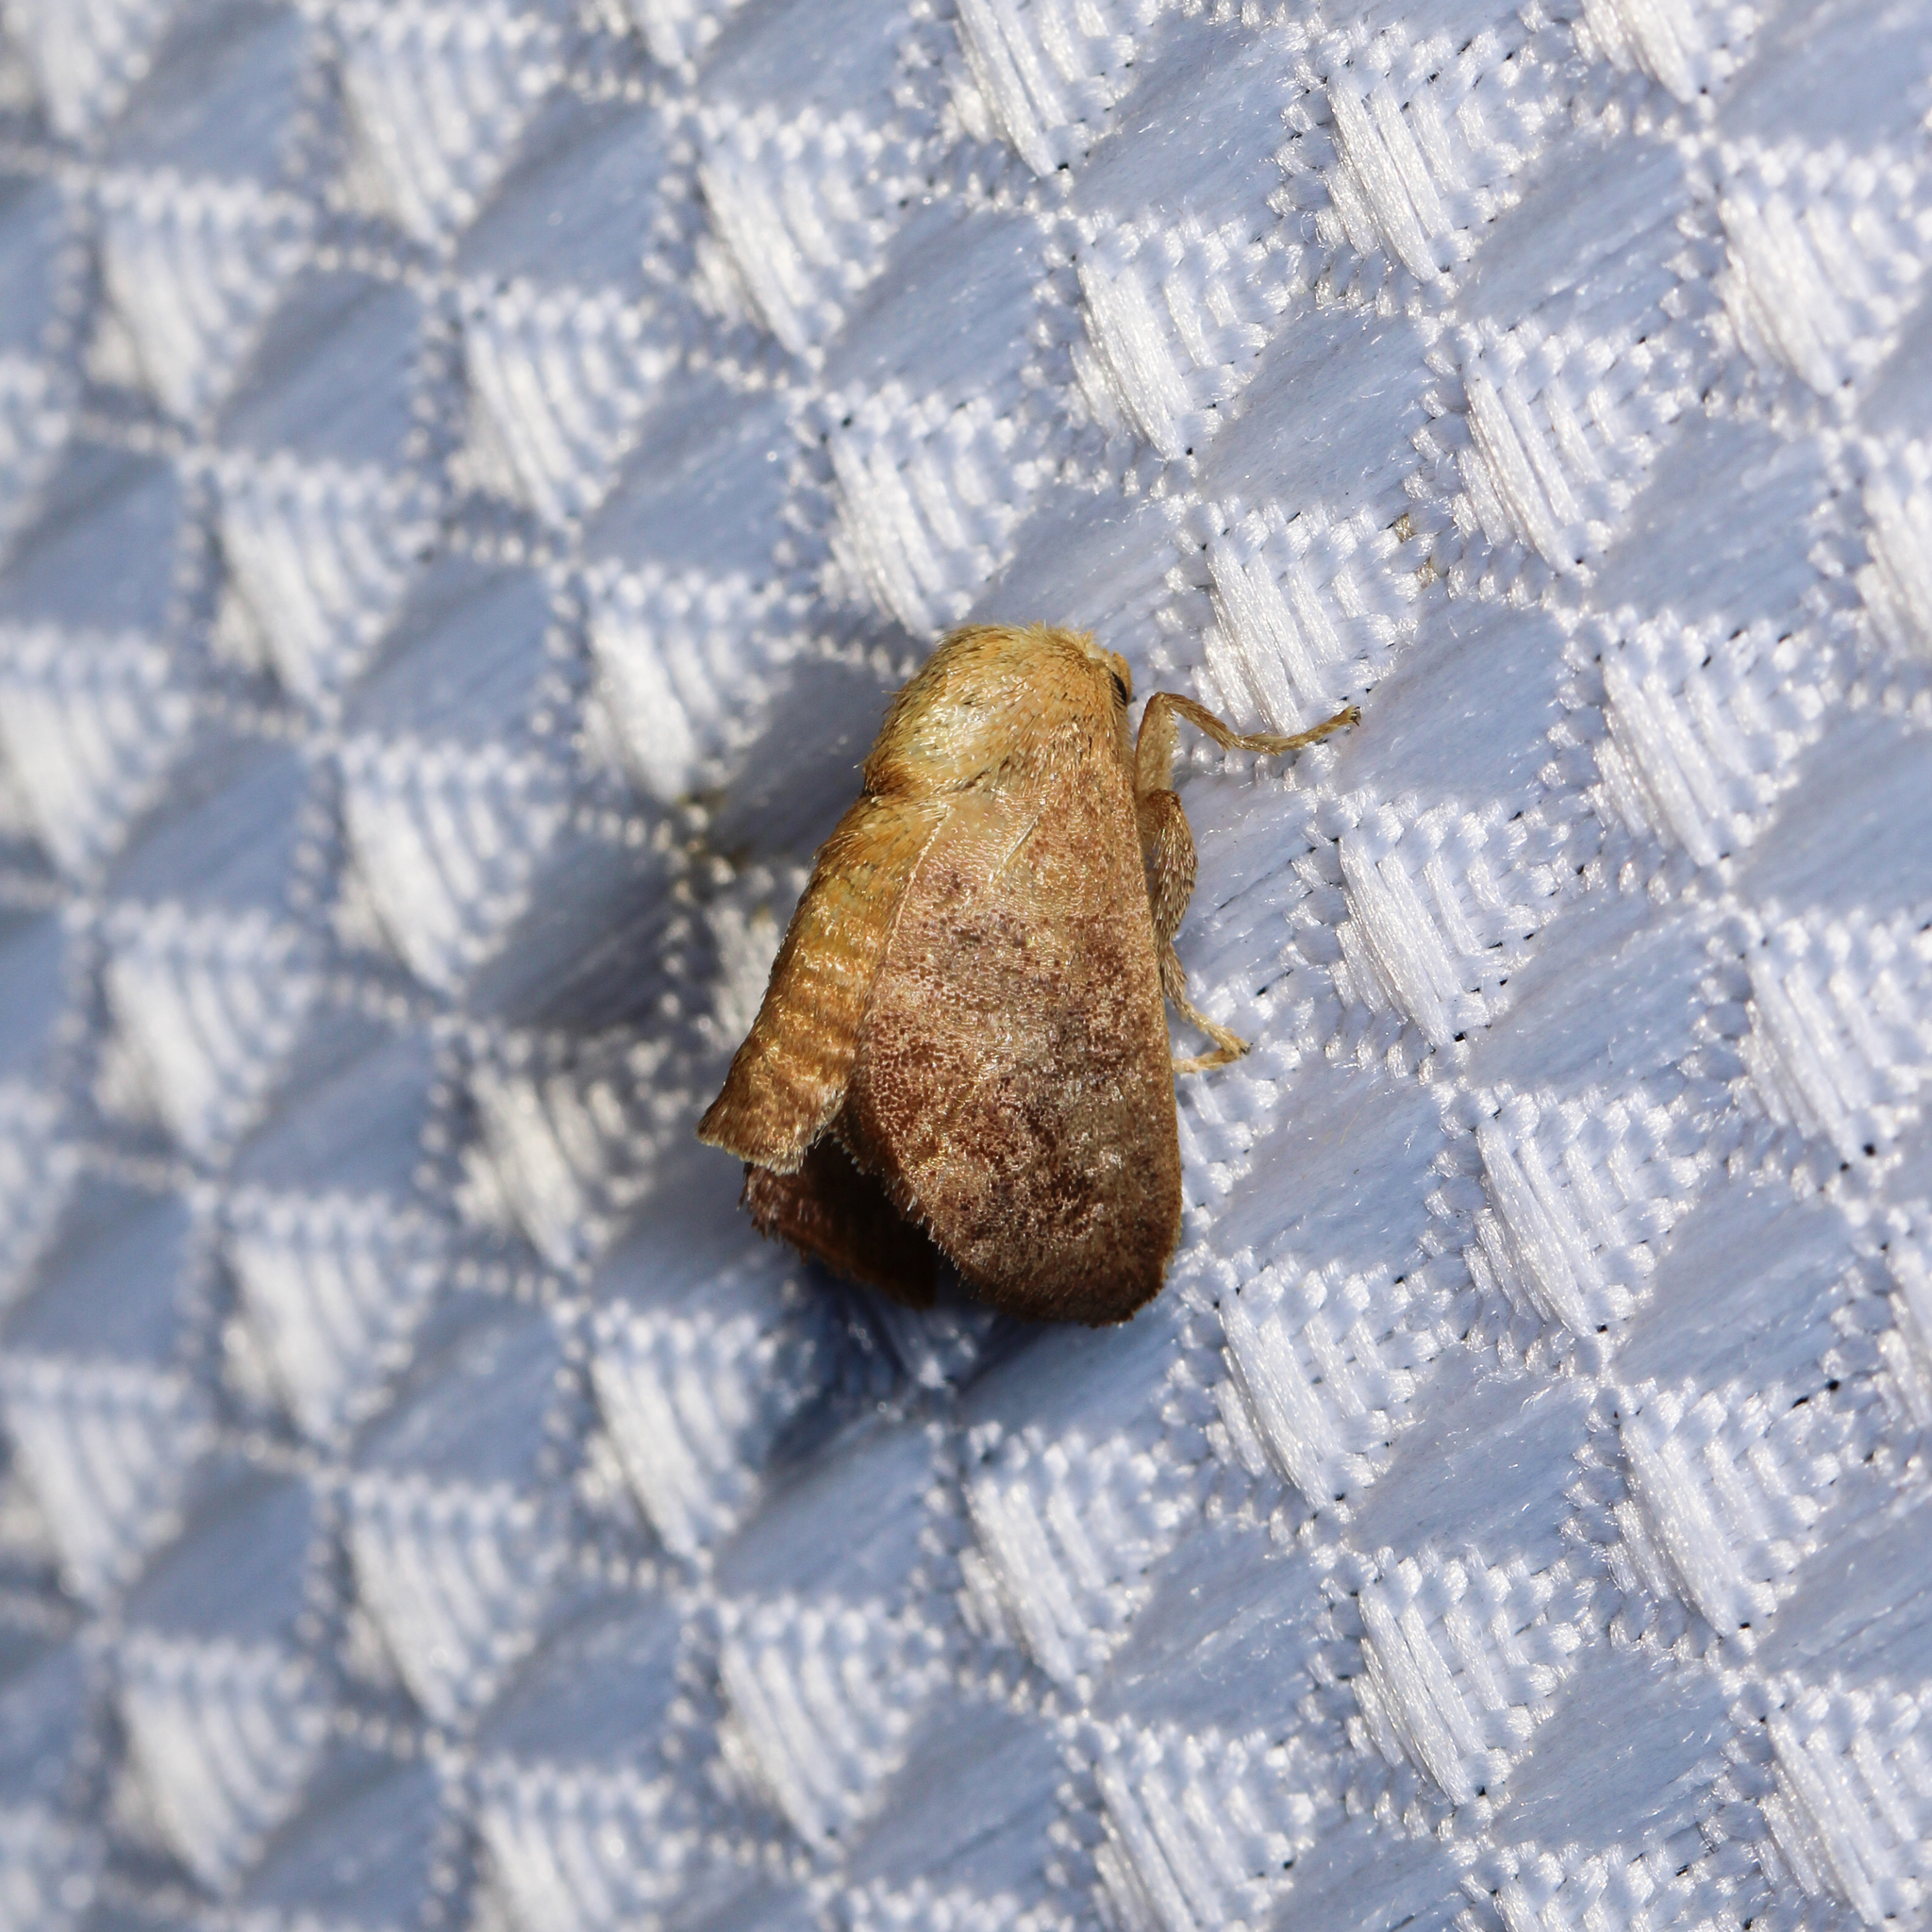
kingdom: Animalia
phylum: Arthropoda
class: Insecta
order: Lepidoptera
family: Limacodidae
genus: Isa
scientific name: Isa textula
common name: Crowned slug moth
